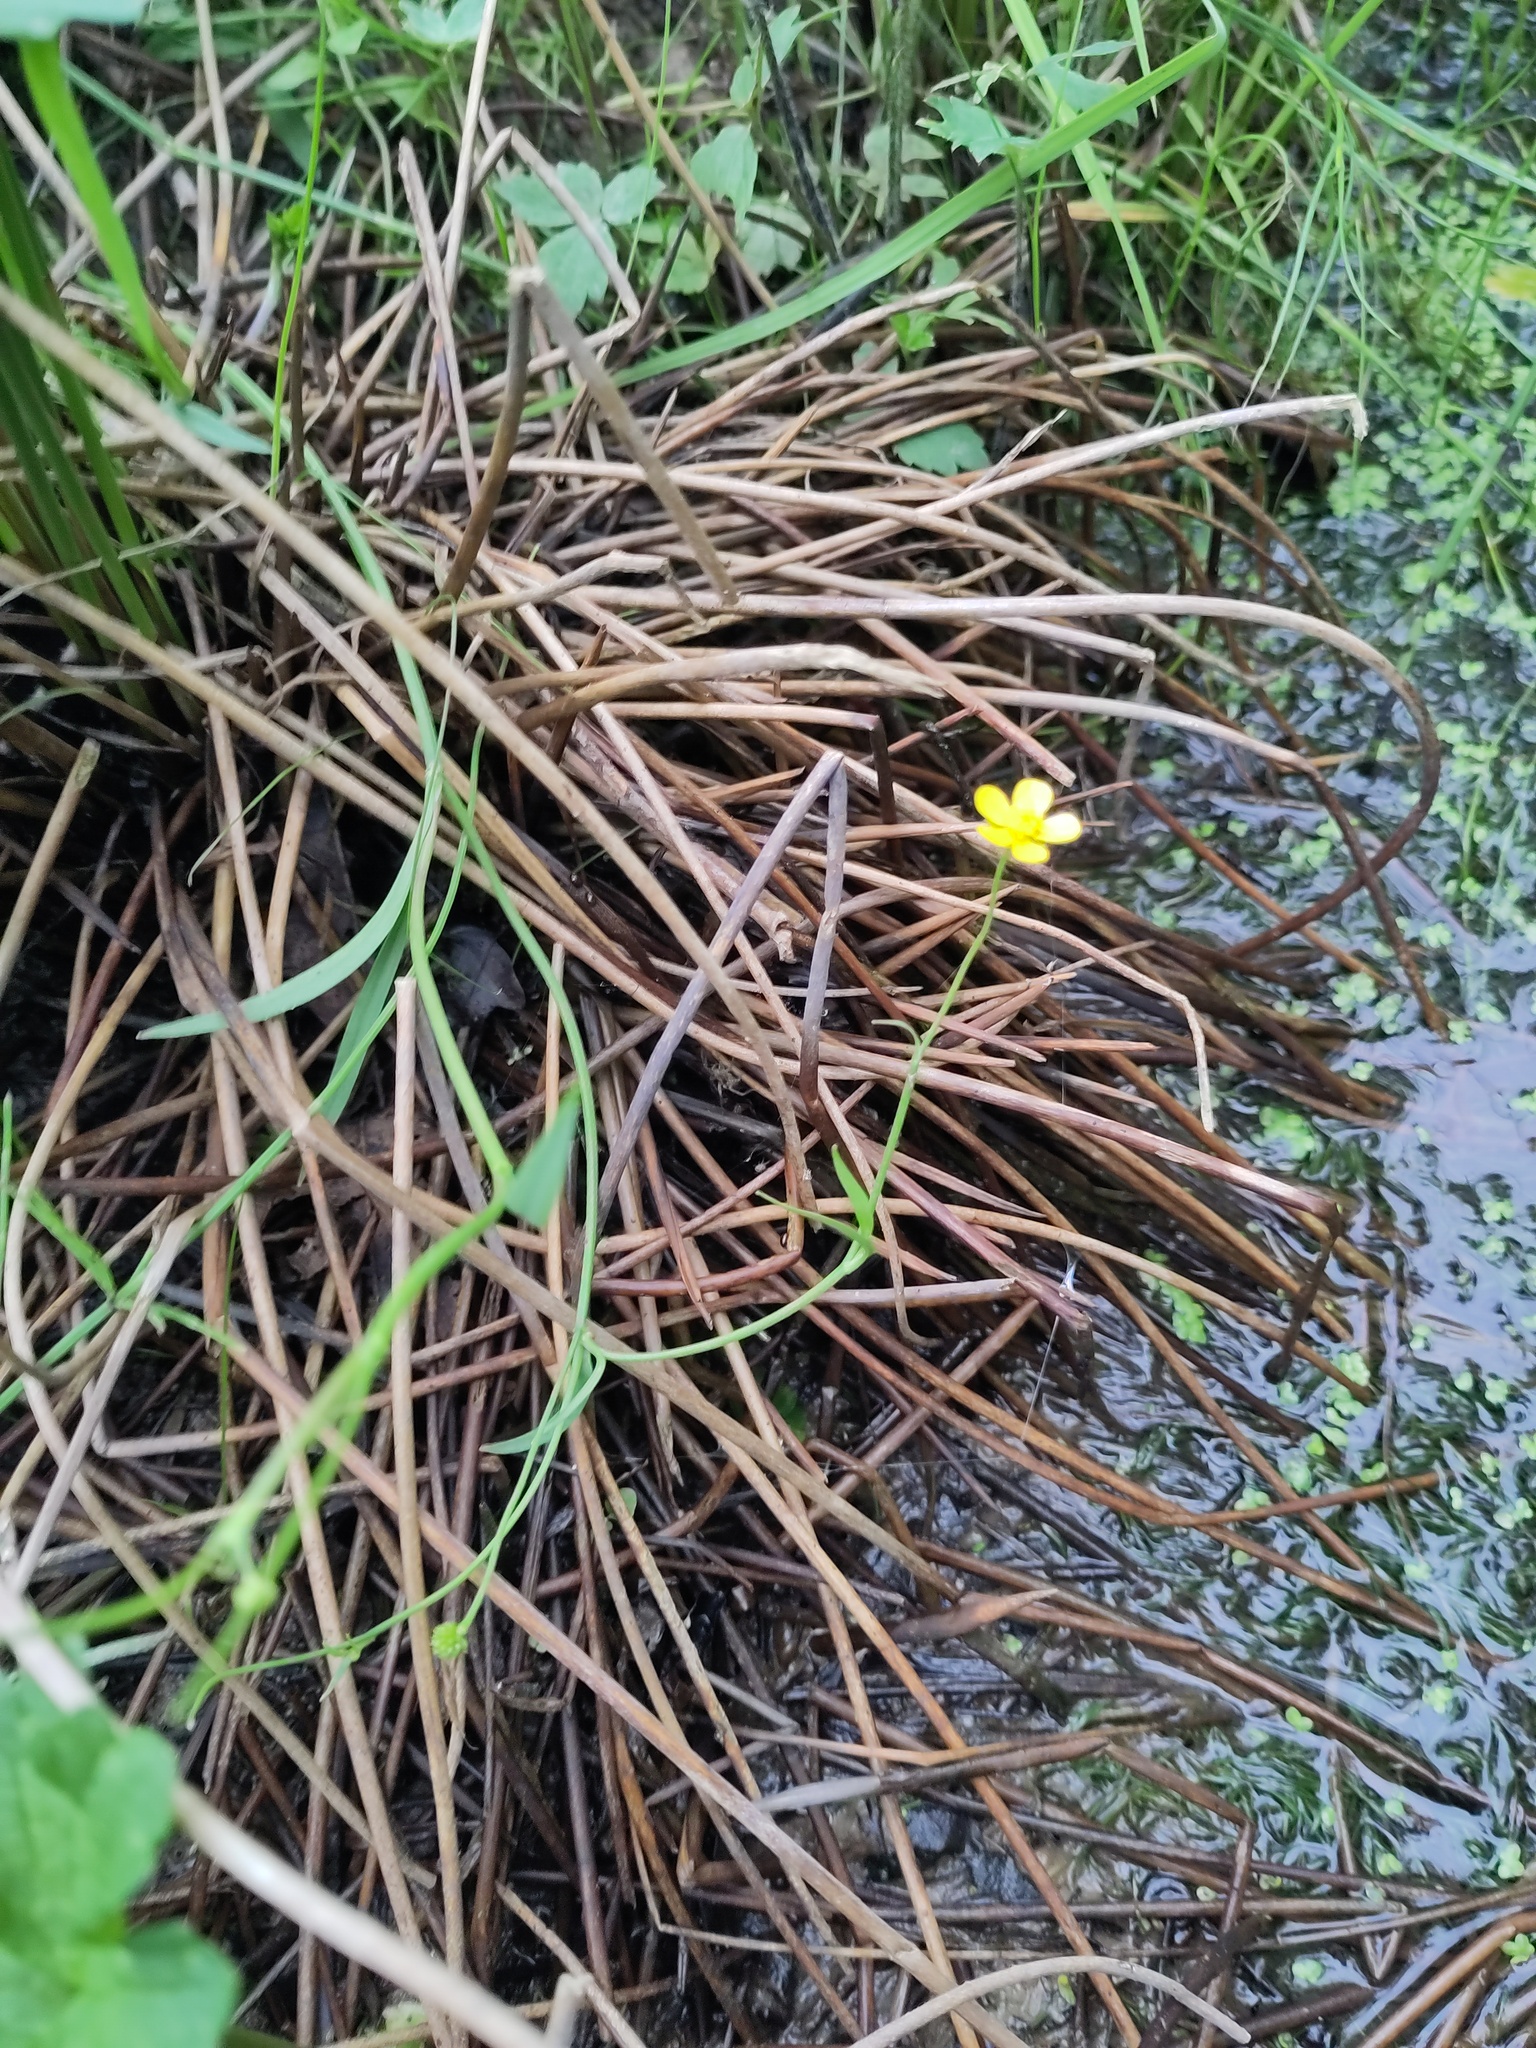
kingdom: Plantae
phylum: Tracheophyta
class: Magnoliopsida
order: Ranunculales
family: Ranunculaceae
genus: Ranunculus
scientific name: Ranunculus flammula
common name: Lesser spearwort
